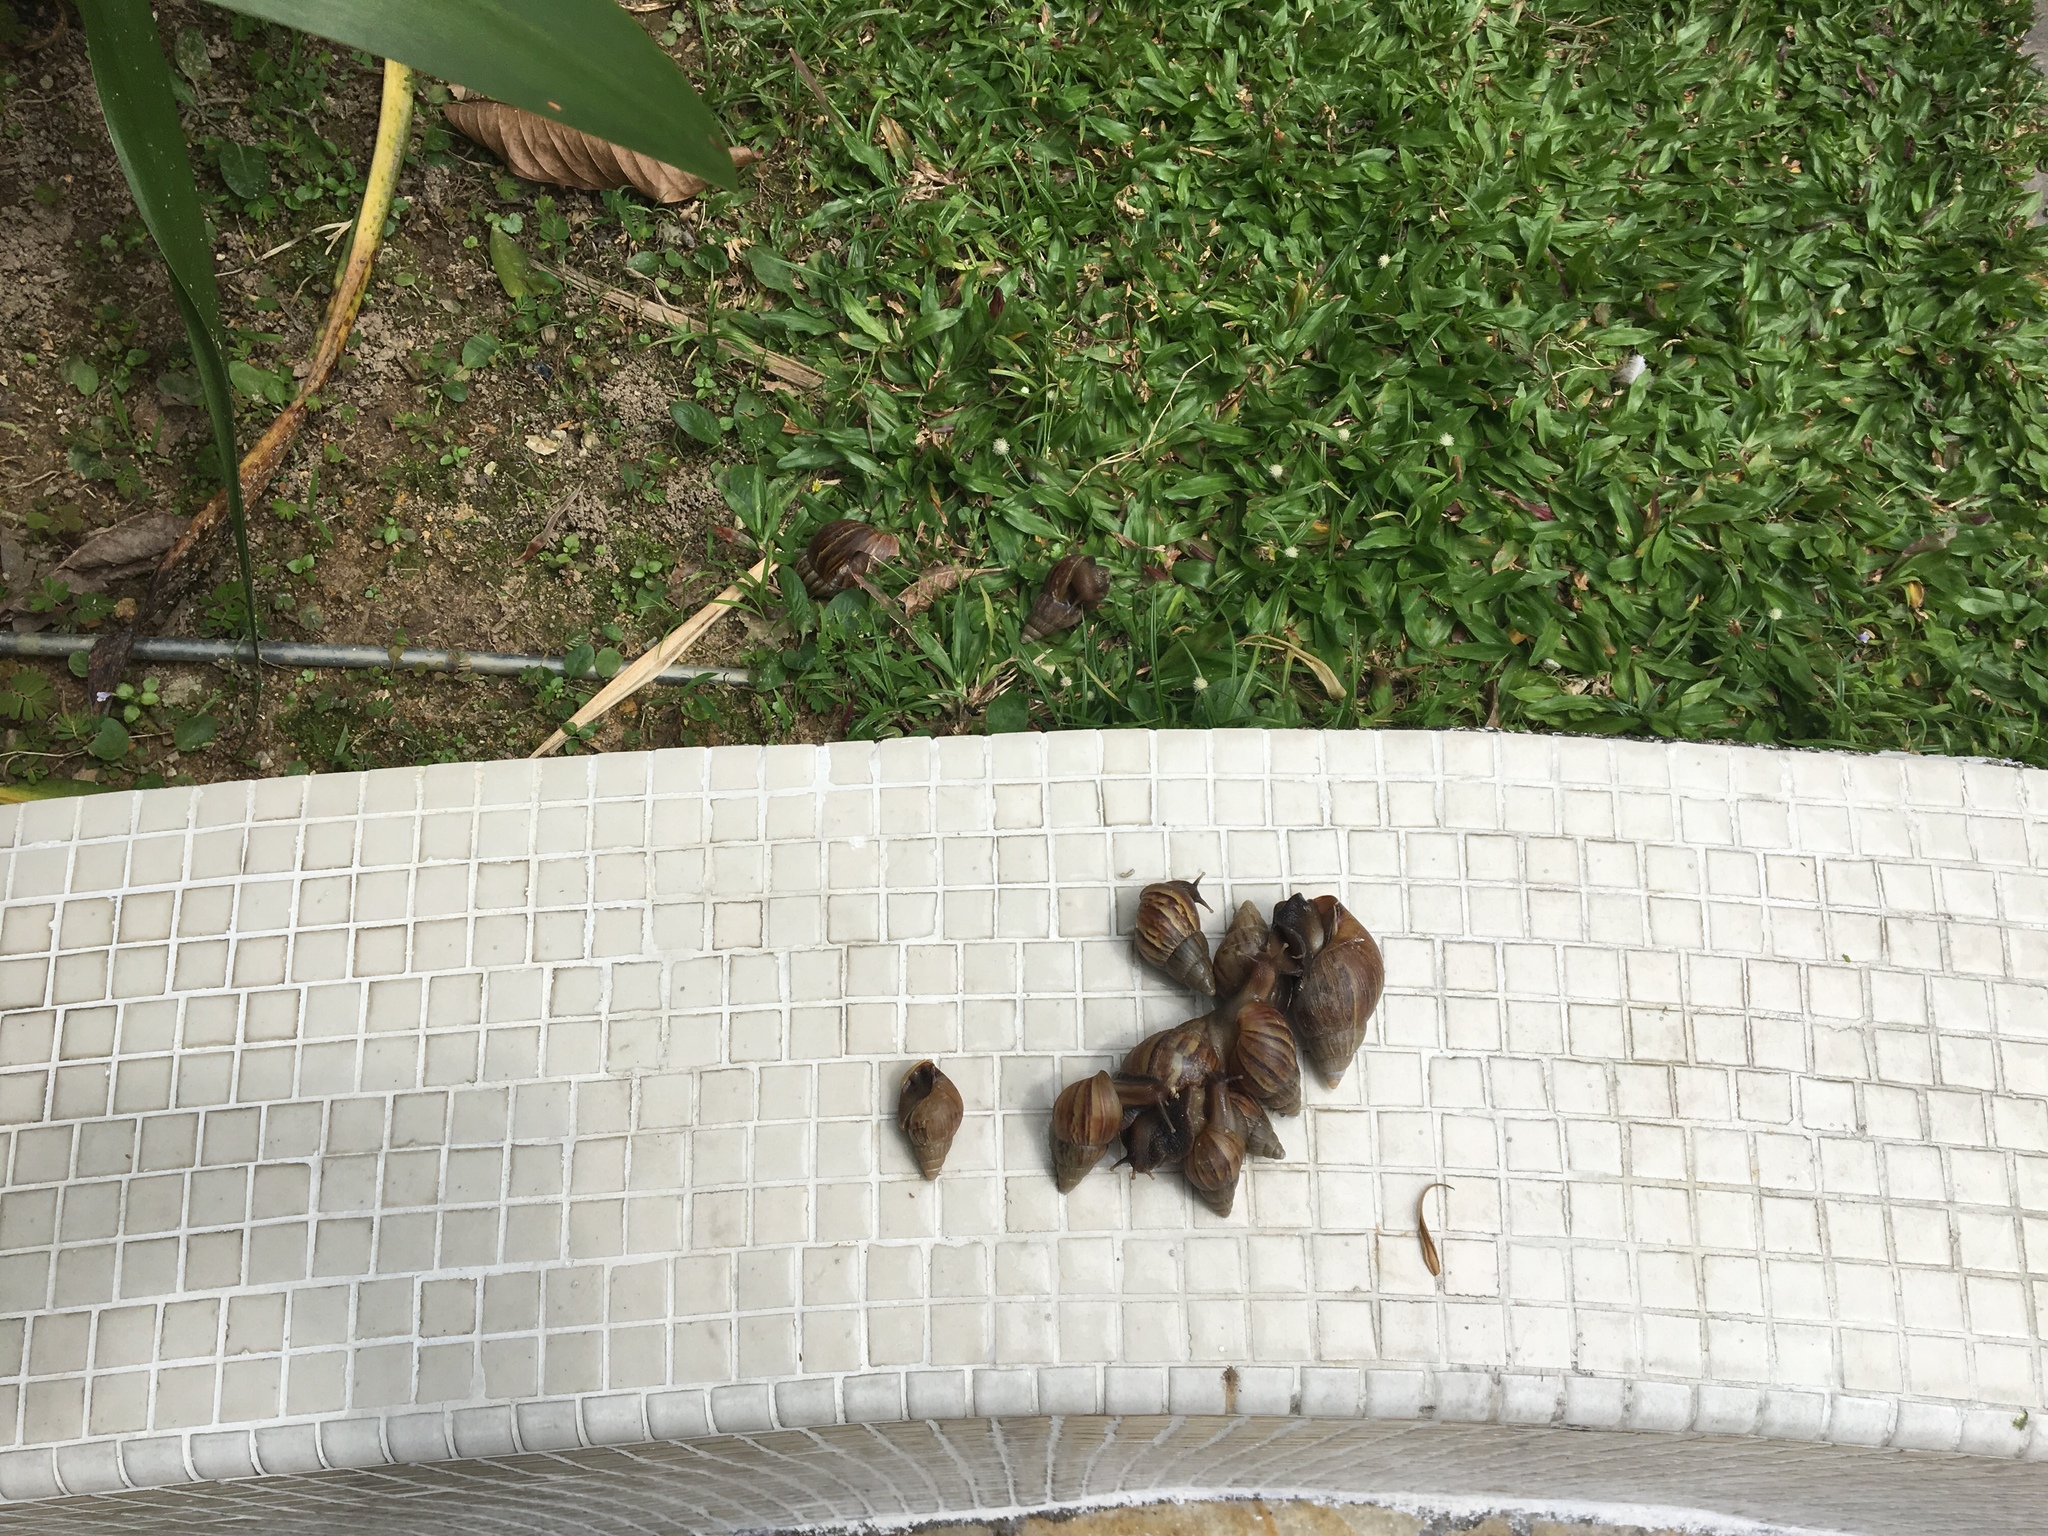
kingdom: Animalia
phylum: Mollusca
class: Gastropoda
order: Stylommatophora
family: Achatinidae
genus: Lissachatina
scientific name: Lissachatina fulica
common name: Giant african snail
